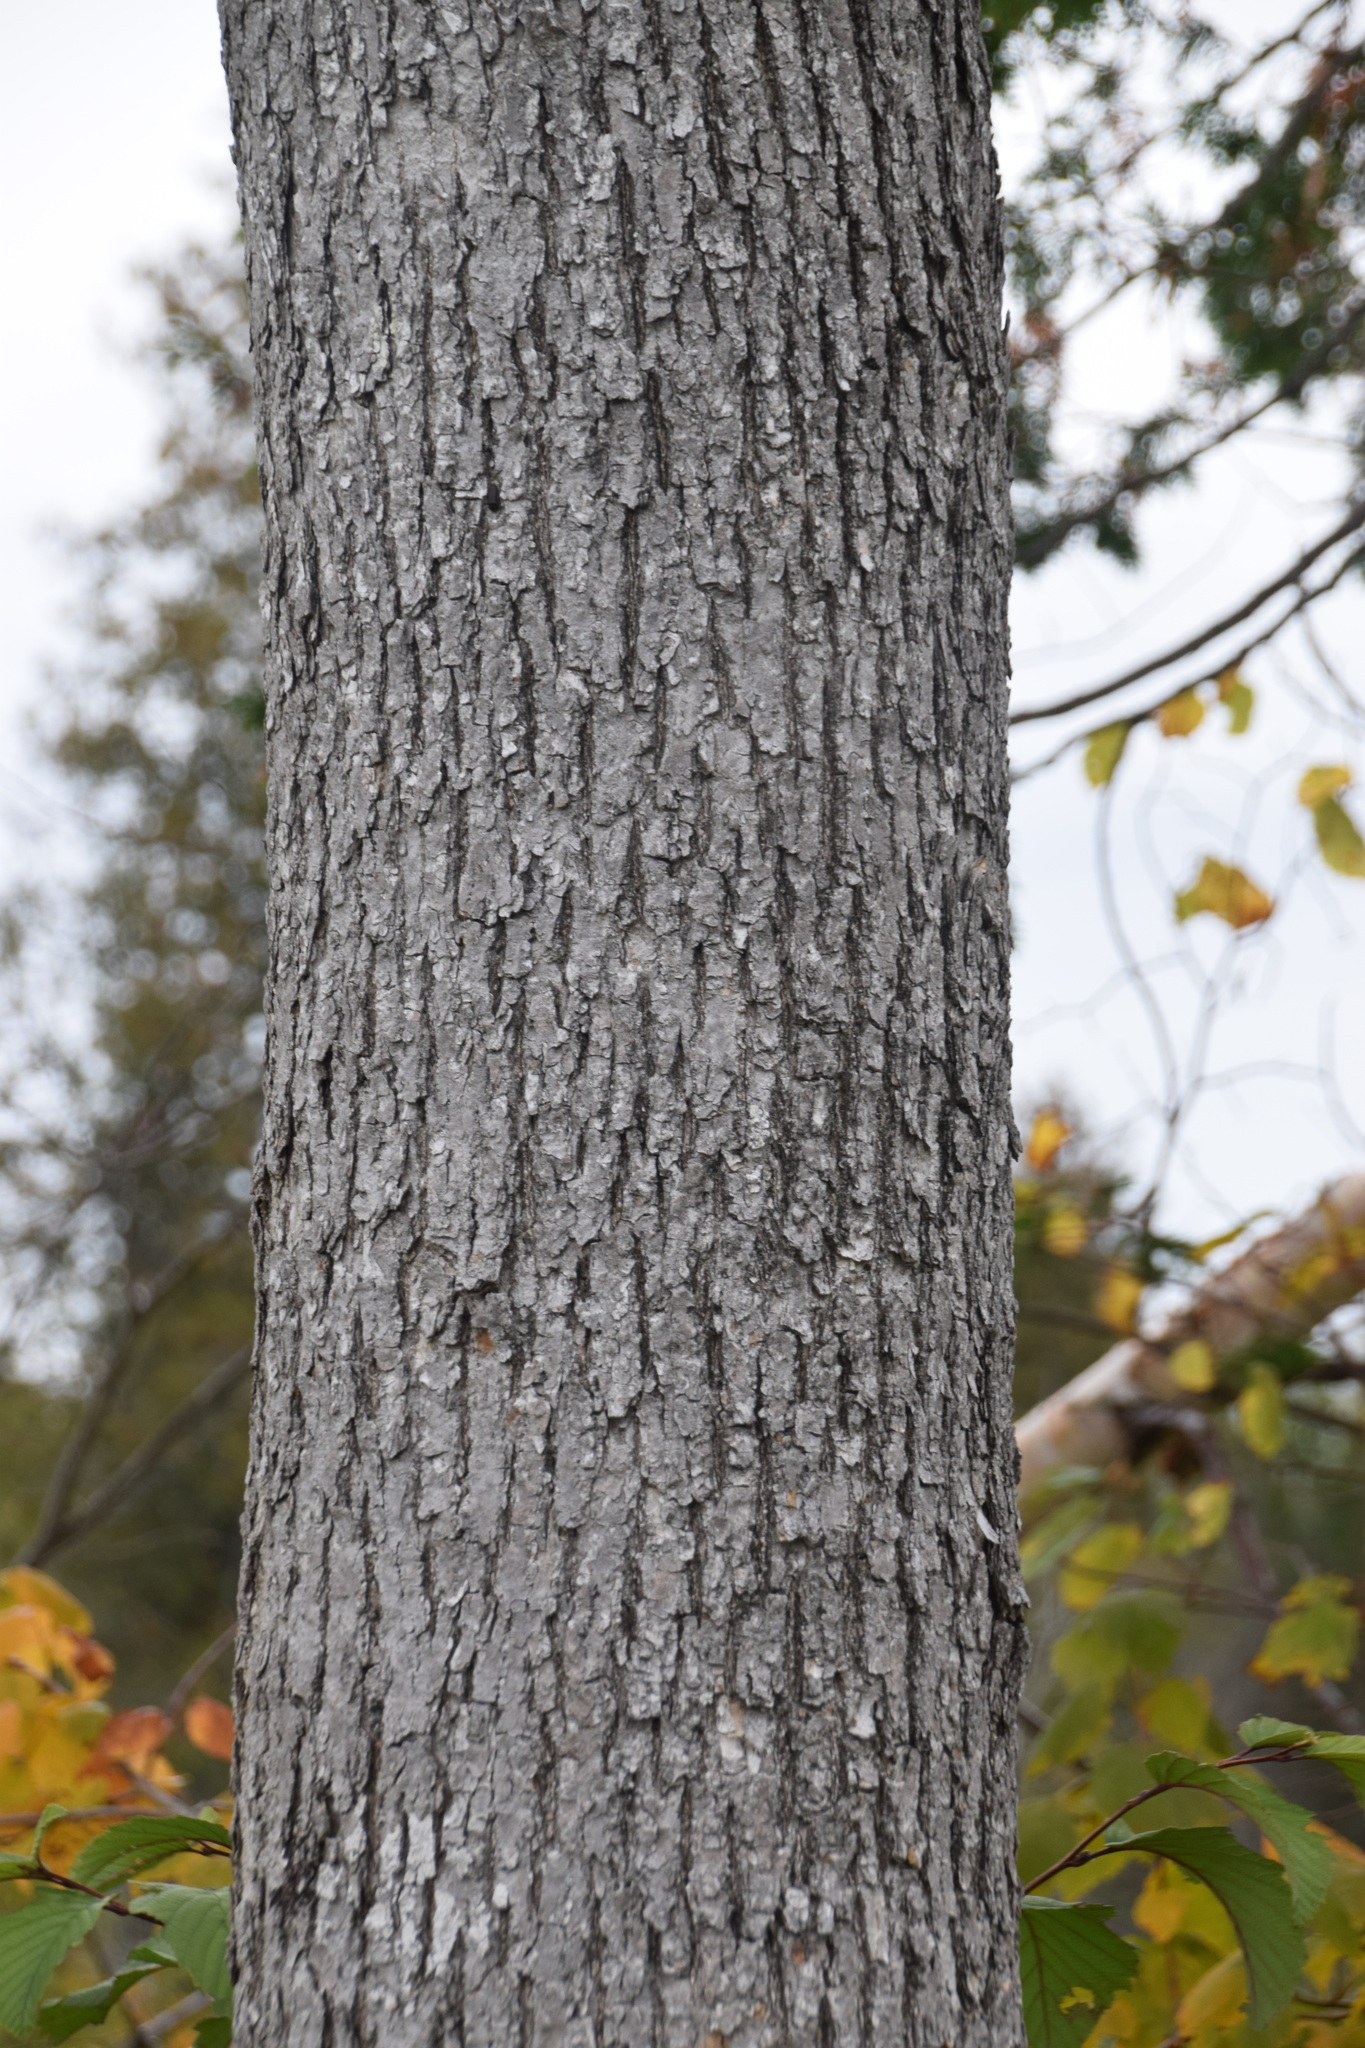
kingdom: Plantae
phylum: Tracheophyta
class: Magnoliopsida
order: Lamiales
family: Oleaceae
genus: Fraxinus
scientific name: Fraxinus nigra
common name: Black ash
